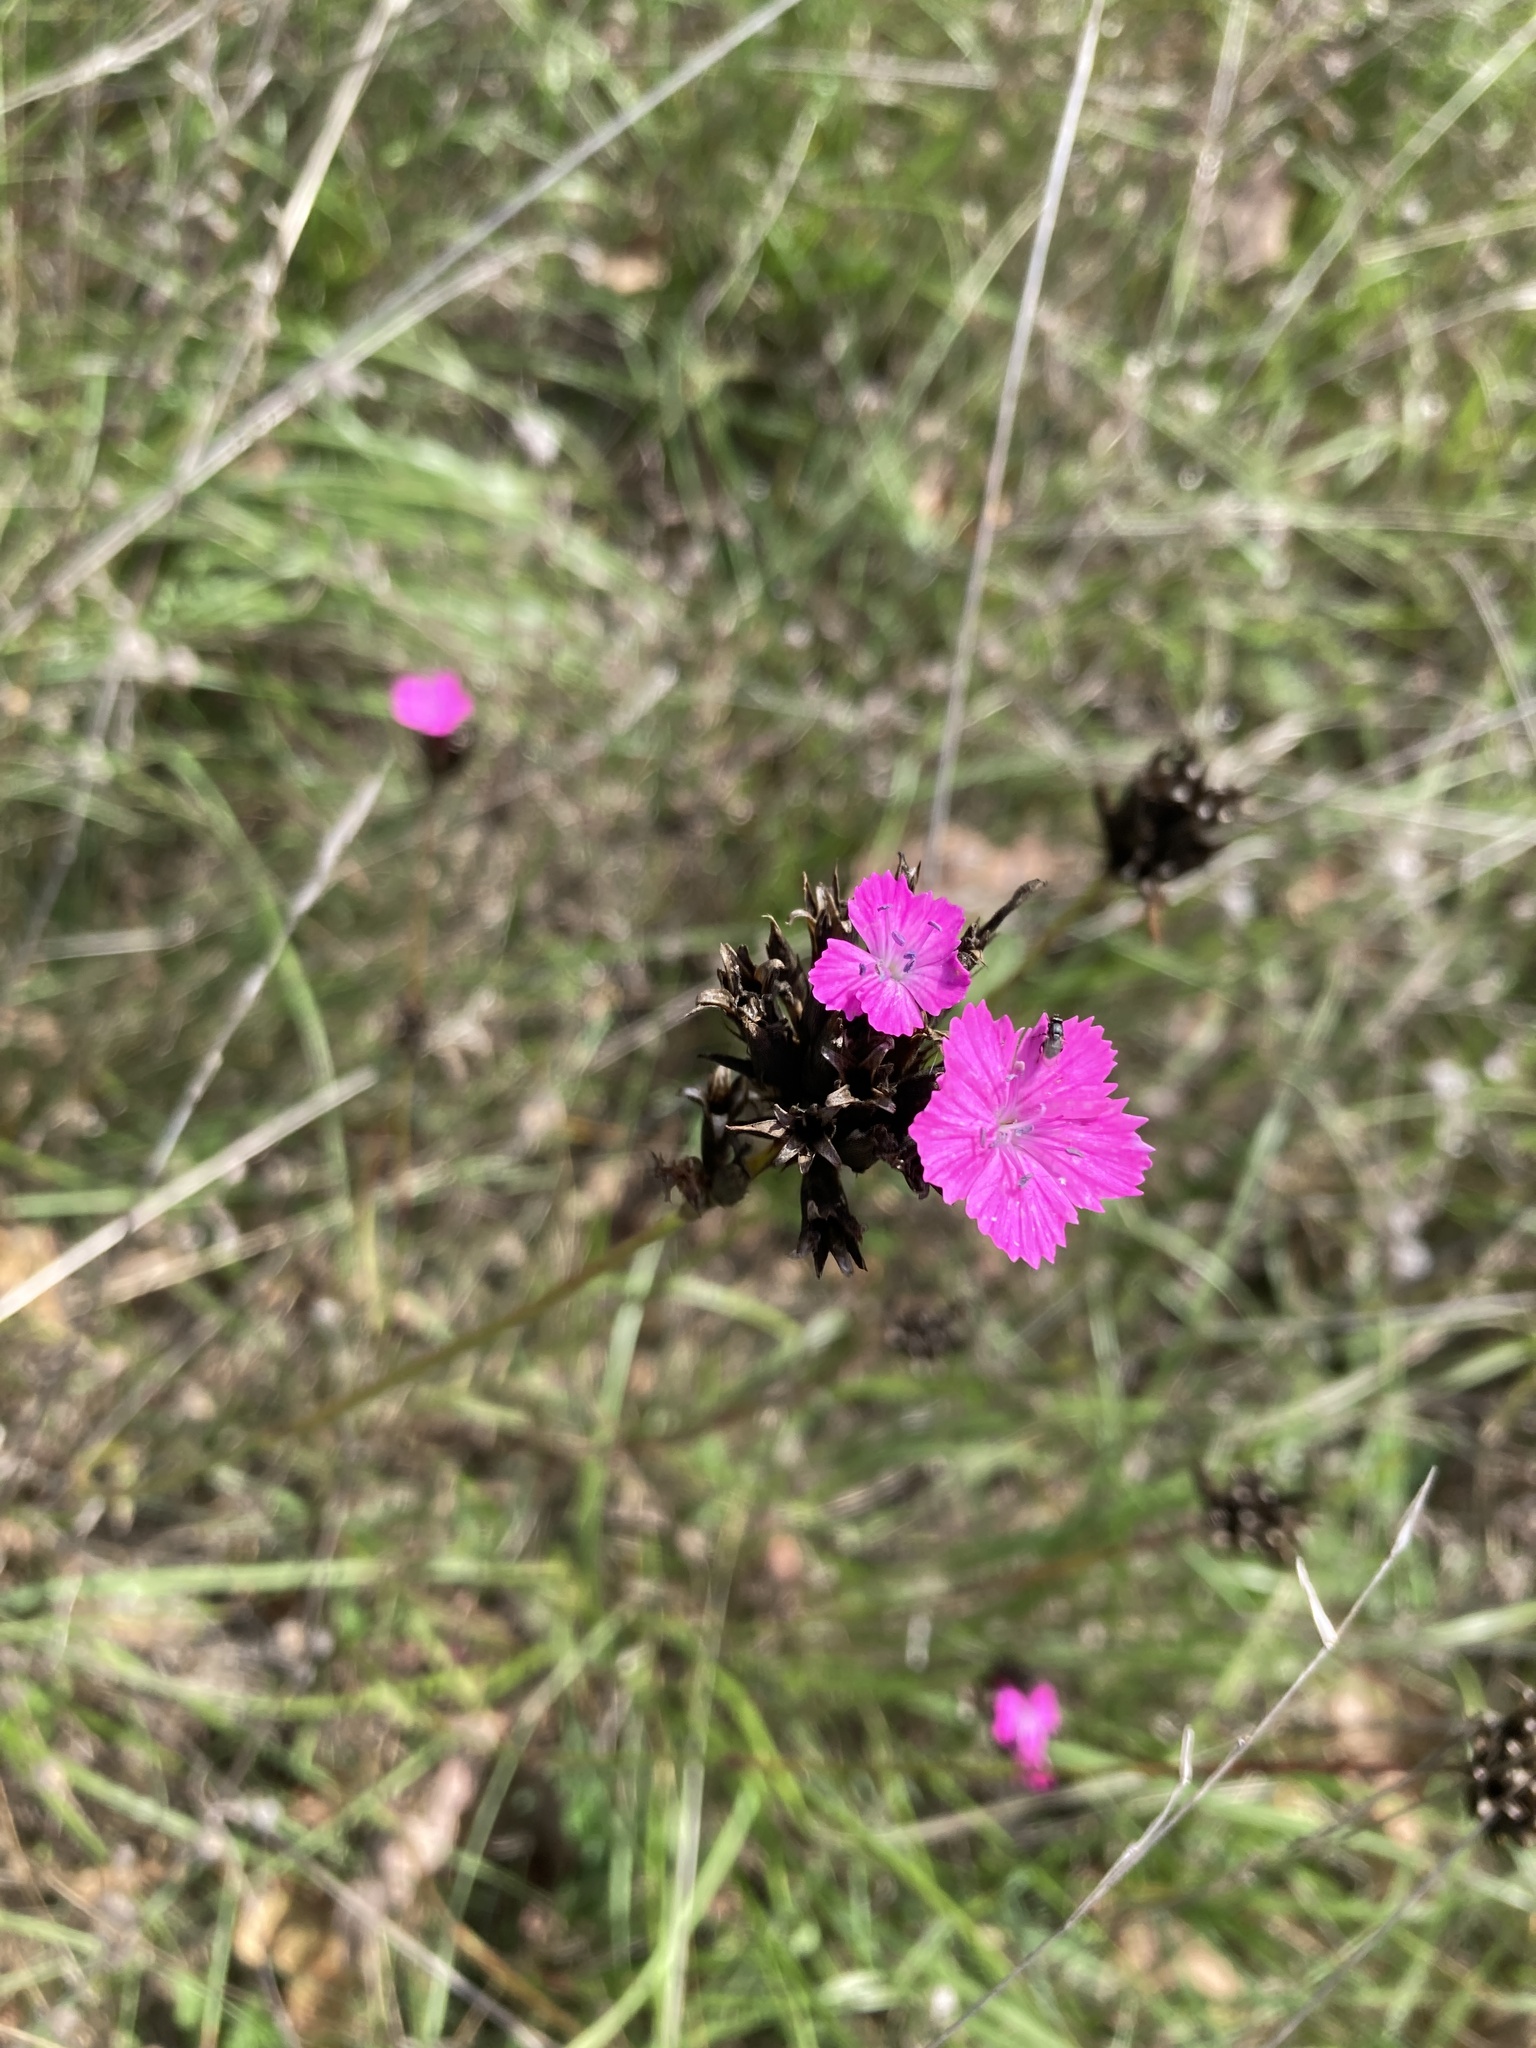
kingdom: Plantae
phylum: Tracheophyta
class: Magnoliopsida
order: Caryophyllales
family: Caryophyllaceae
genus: Dianthus
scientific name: Dianthus carthusianorum
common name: Carthusian pink
